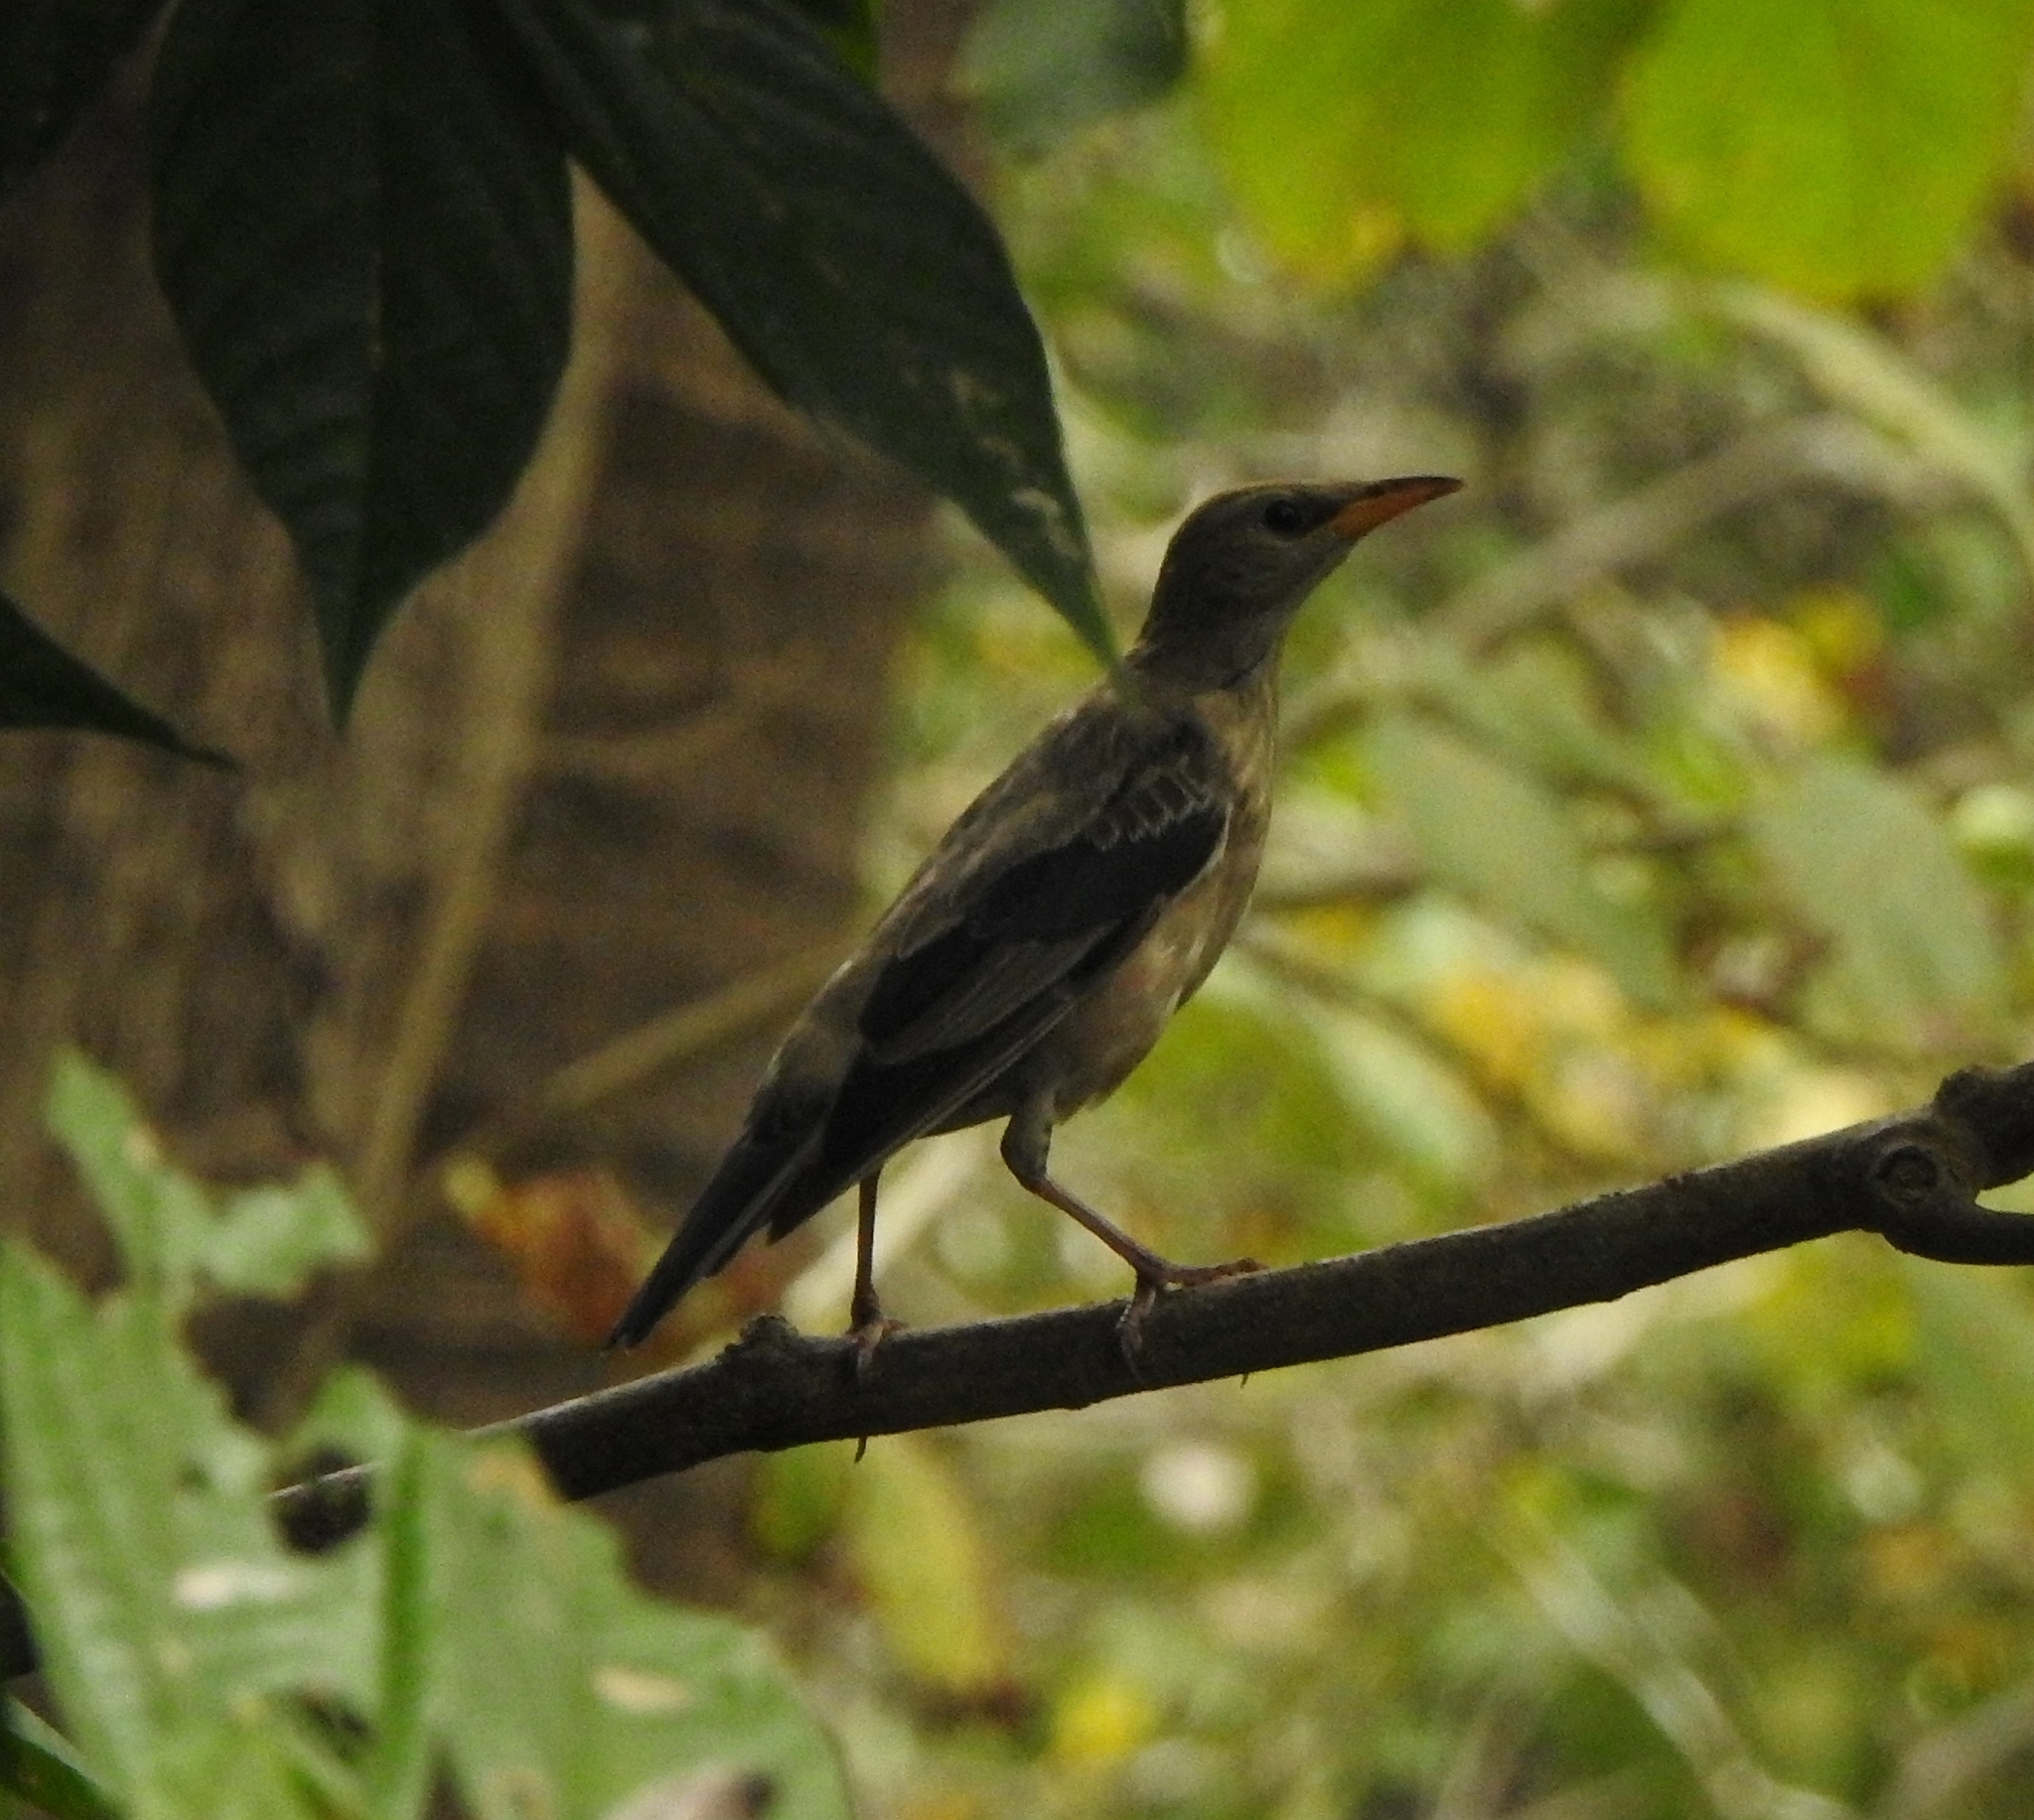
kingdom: Animalia
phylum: Chordata
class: Aves
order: Passeriformes
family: Sturnidae
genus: Pastor
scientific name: Pastor roseus
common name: Rosy starling
